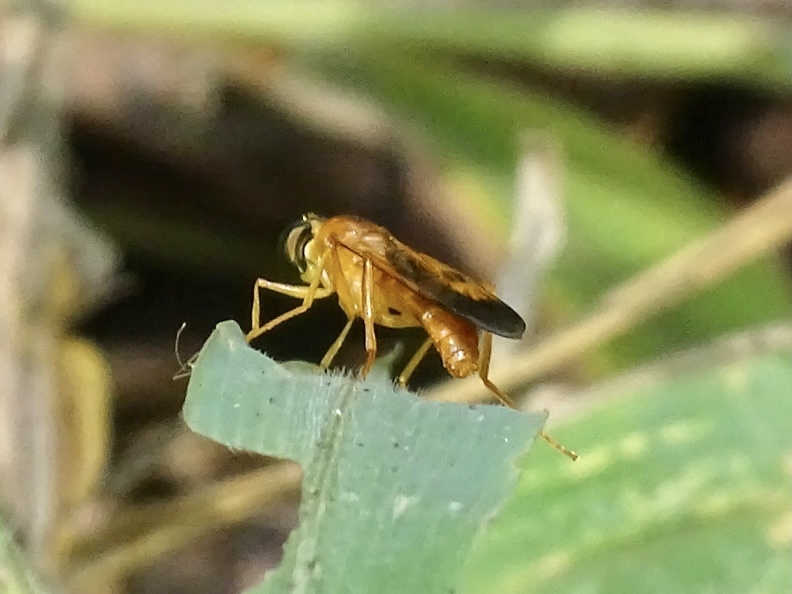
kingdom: Animalia
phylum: Arthropoda
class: Insecta
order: Diptera
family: Stratiomyidae
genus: Ptecticus
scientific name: Ptecticus aurifer
